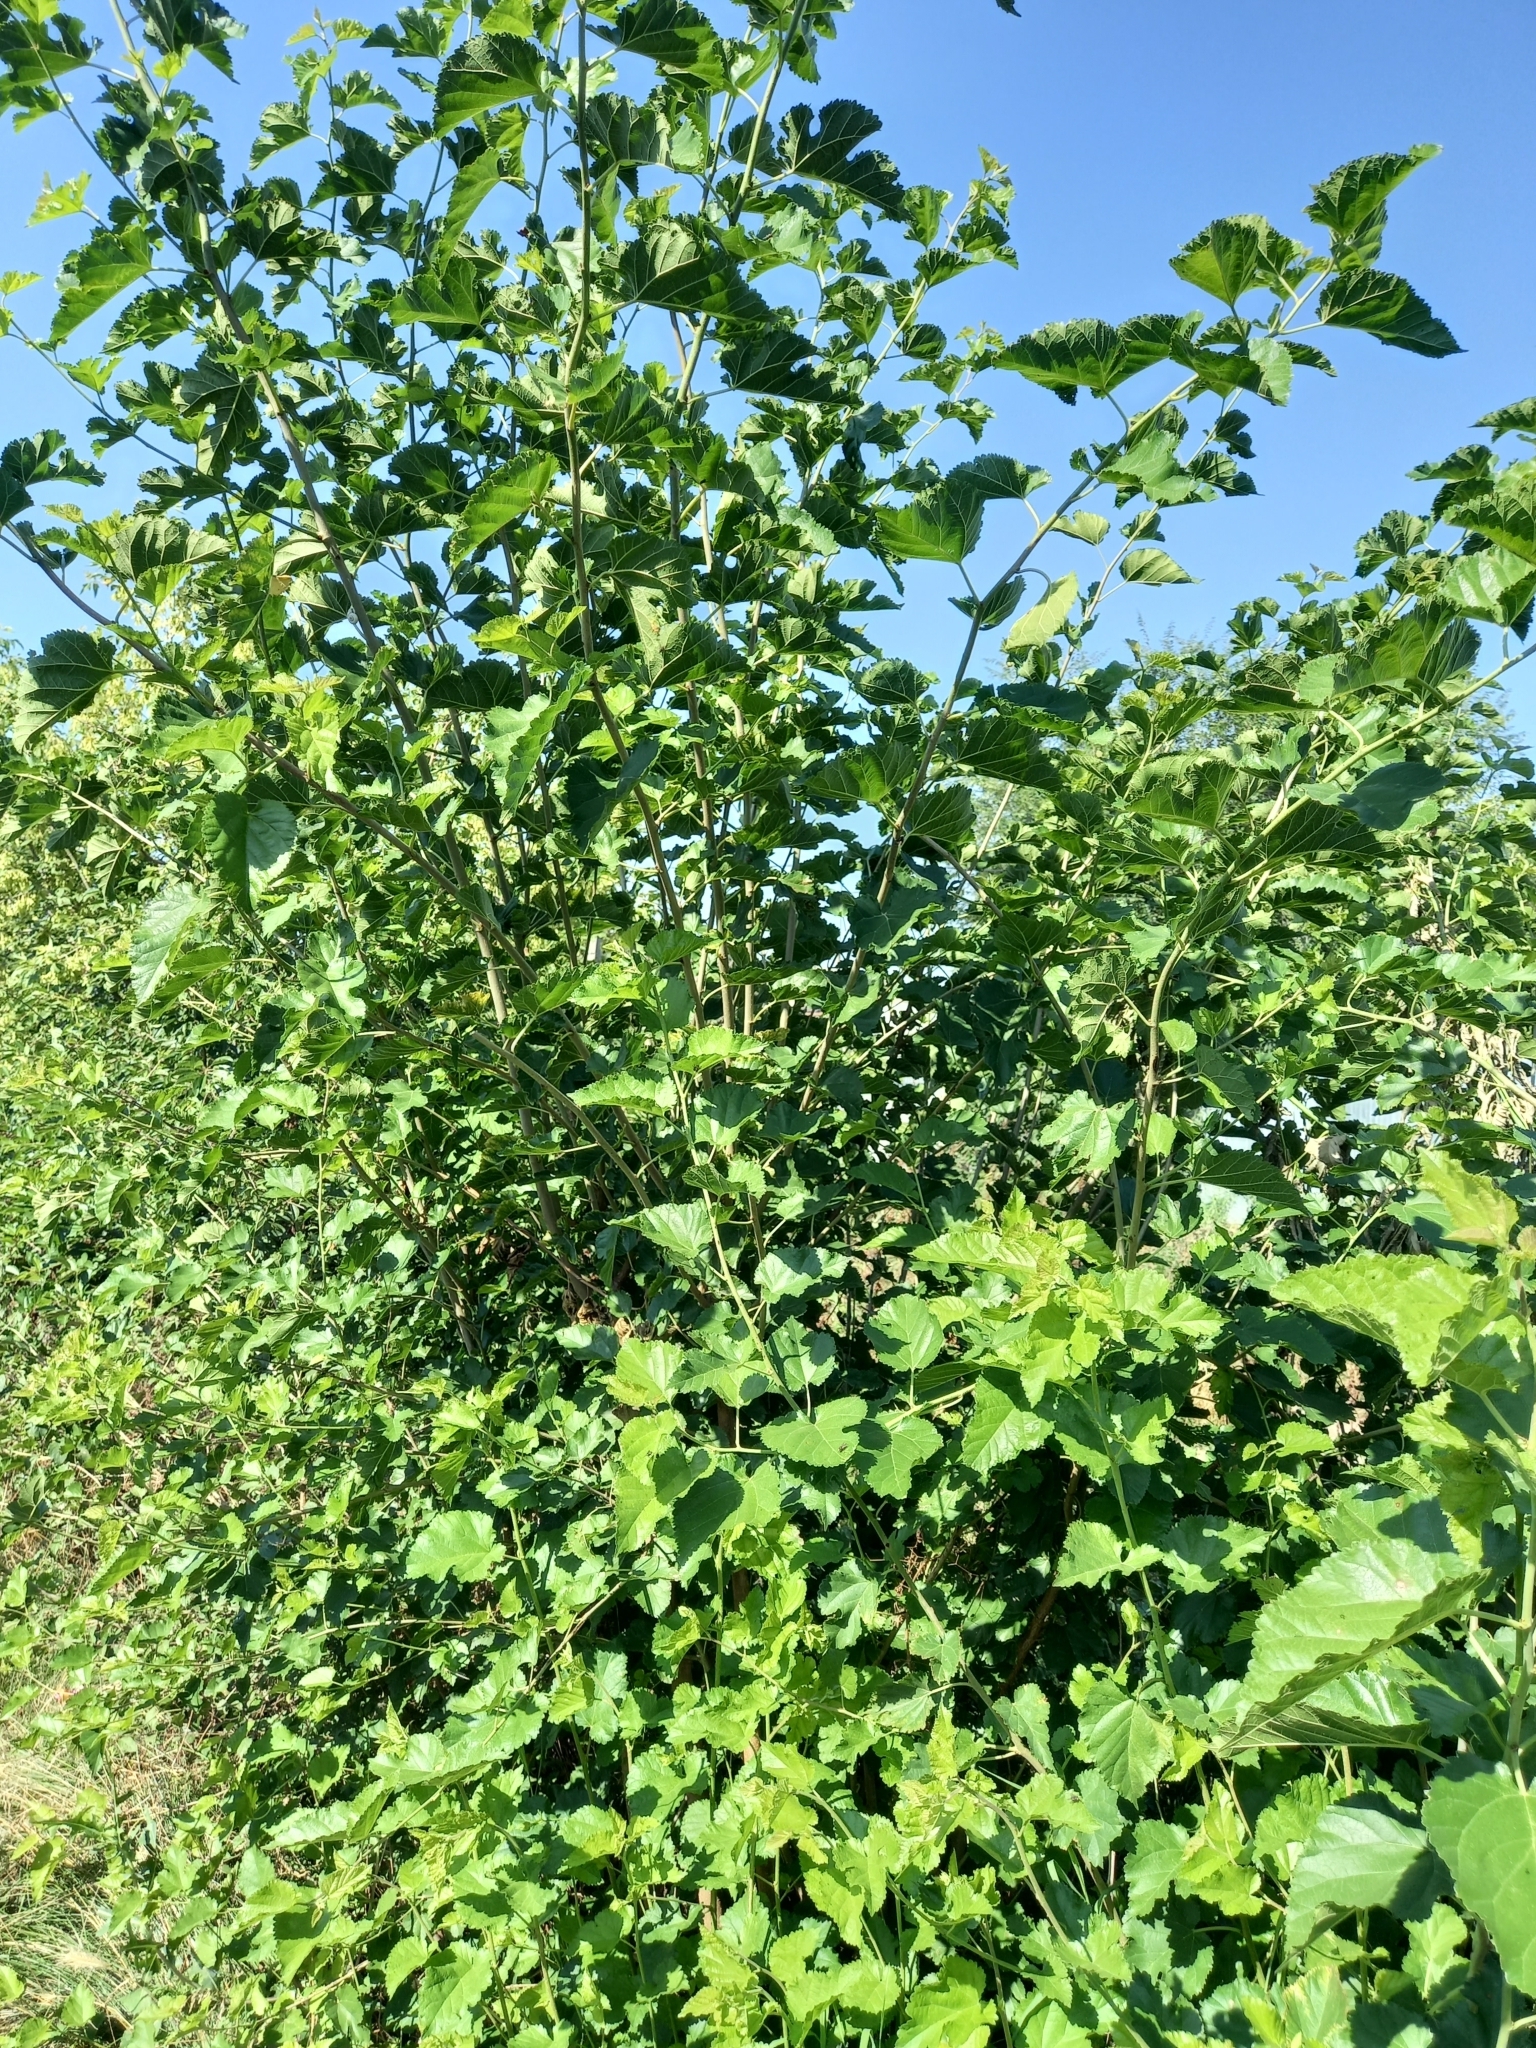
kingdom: Plantae
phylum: Tracheophyta
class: Magnoliopsida
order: Rosales
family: Moraceae
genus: Morus
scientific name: Morus alba
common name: White mulberry
